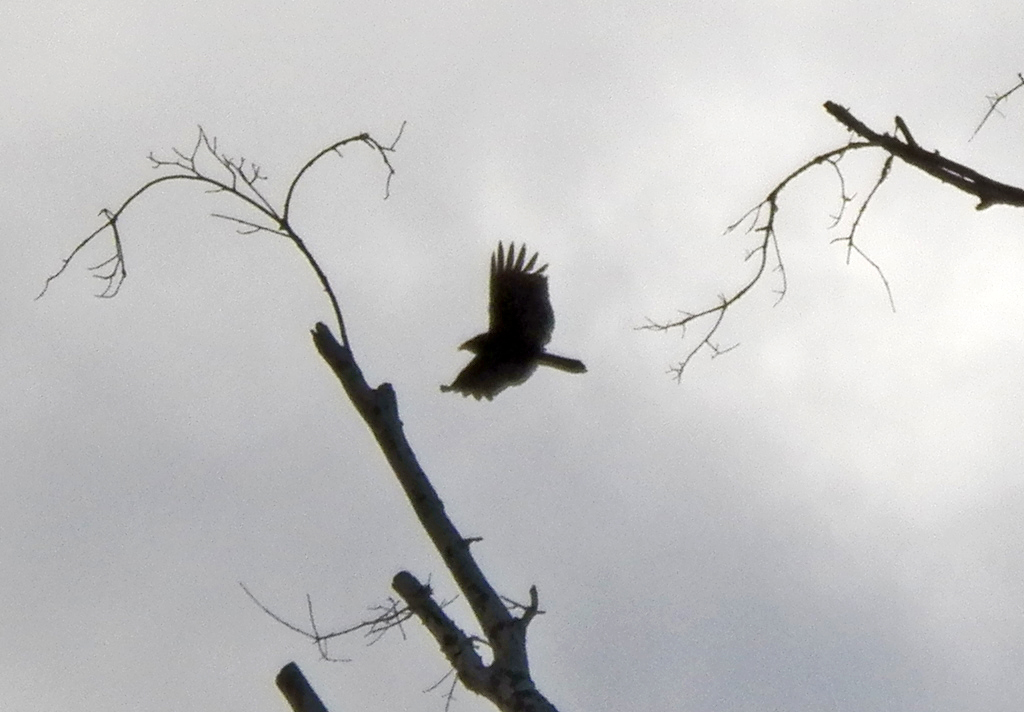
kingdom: Animalia
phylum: Chordata
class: Aves
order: Accipitriformes
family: Cathartidae
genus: Cathartes
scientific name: Cathartes aura
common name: Turkey vulture
